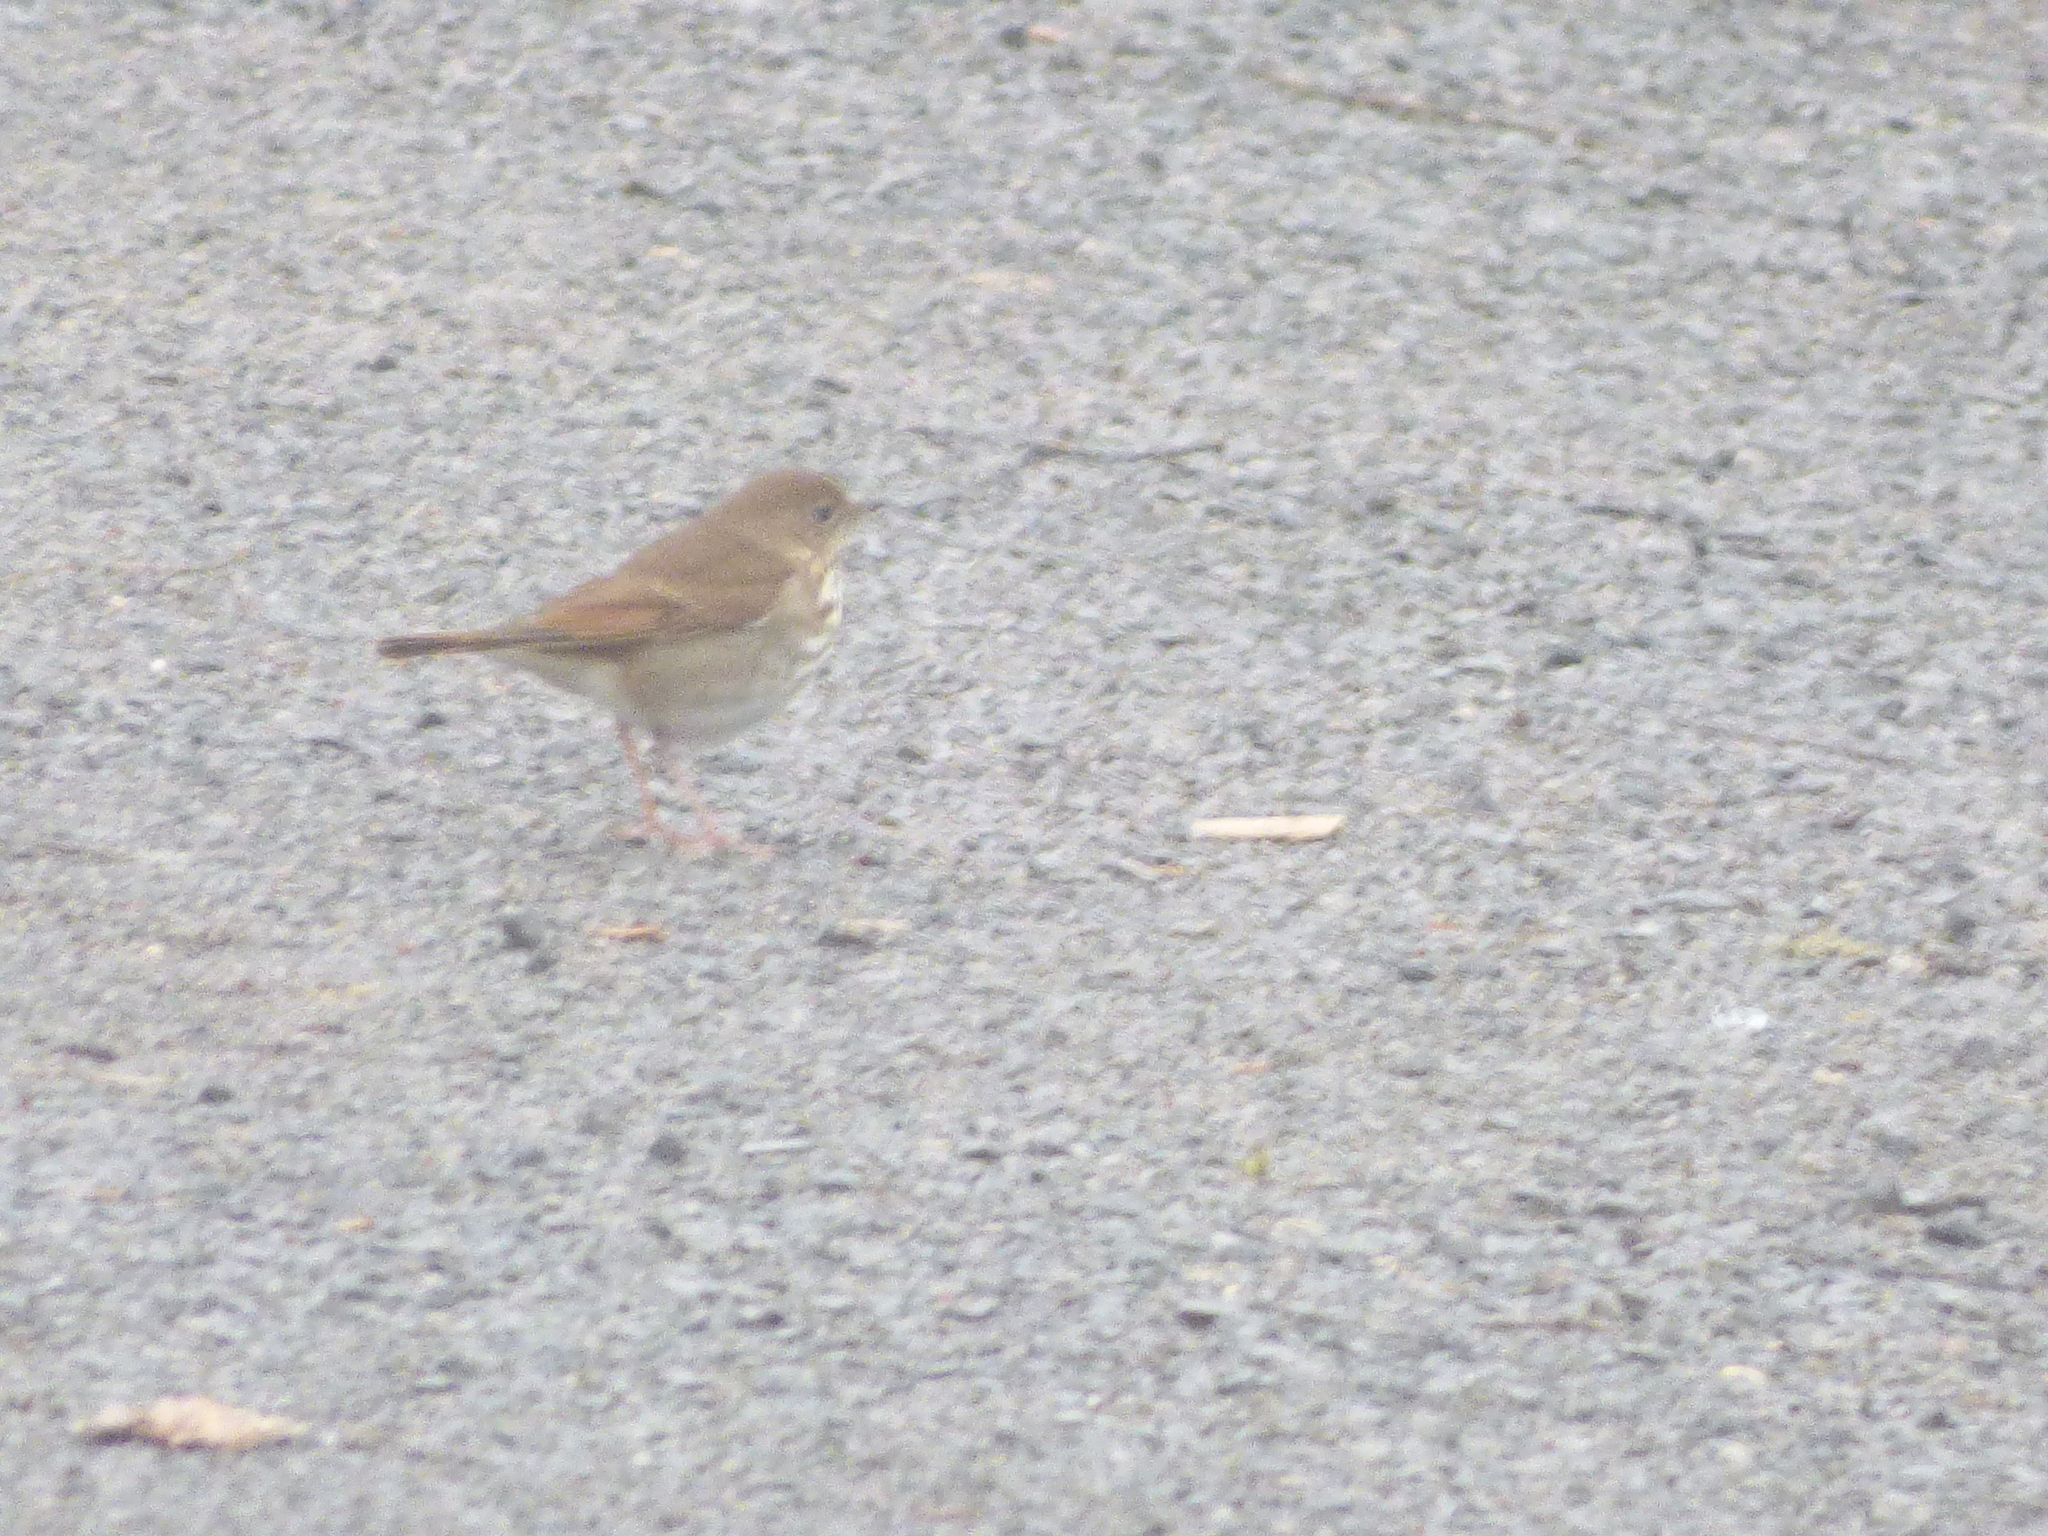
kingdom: Animalia
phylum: Chordata
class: Aves
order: Passeriformes
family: Turdidae
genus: Catharus
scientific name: Catharus guttatus
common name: Hermit thrush
